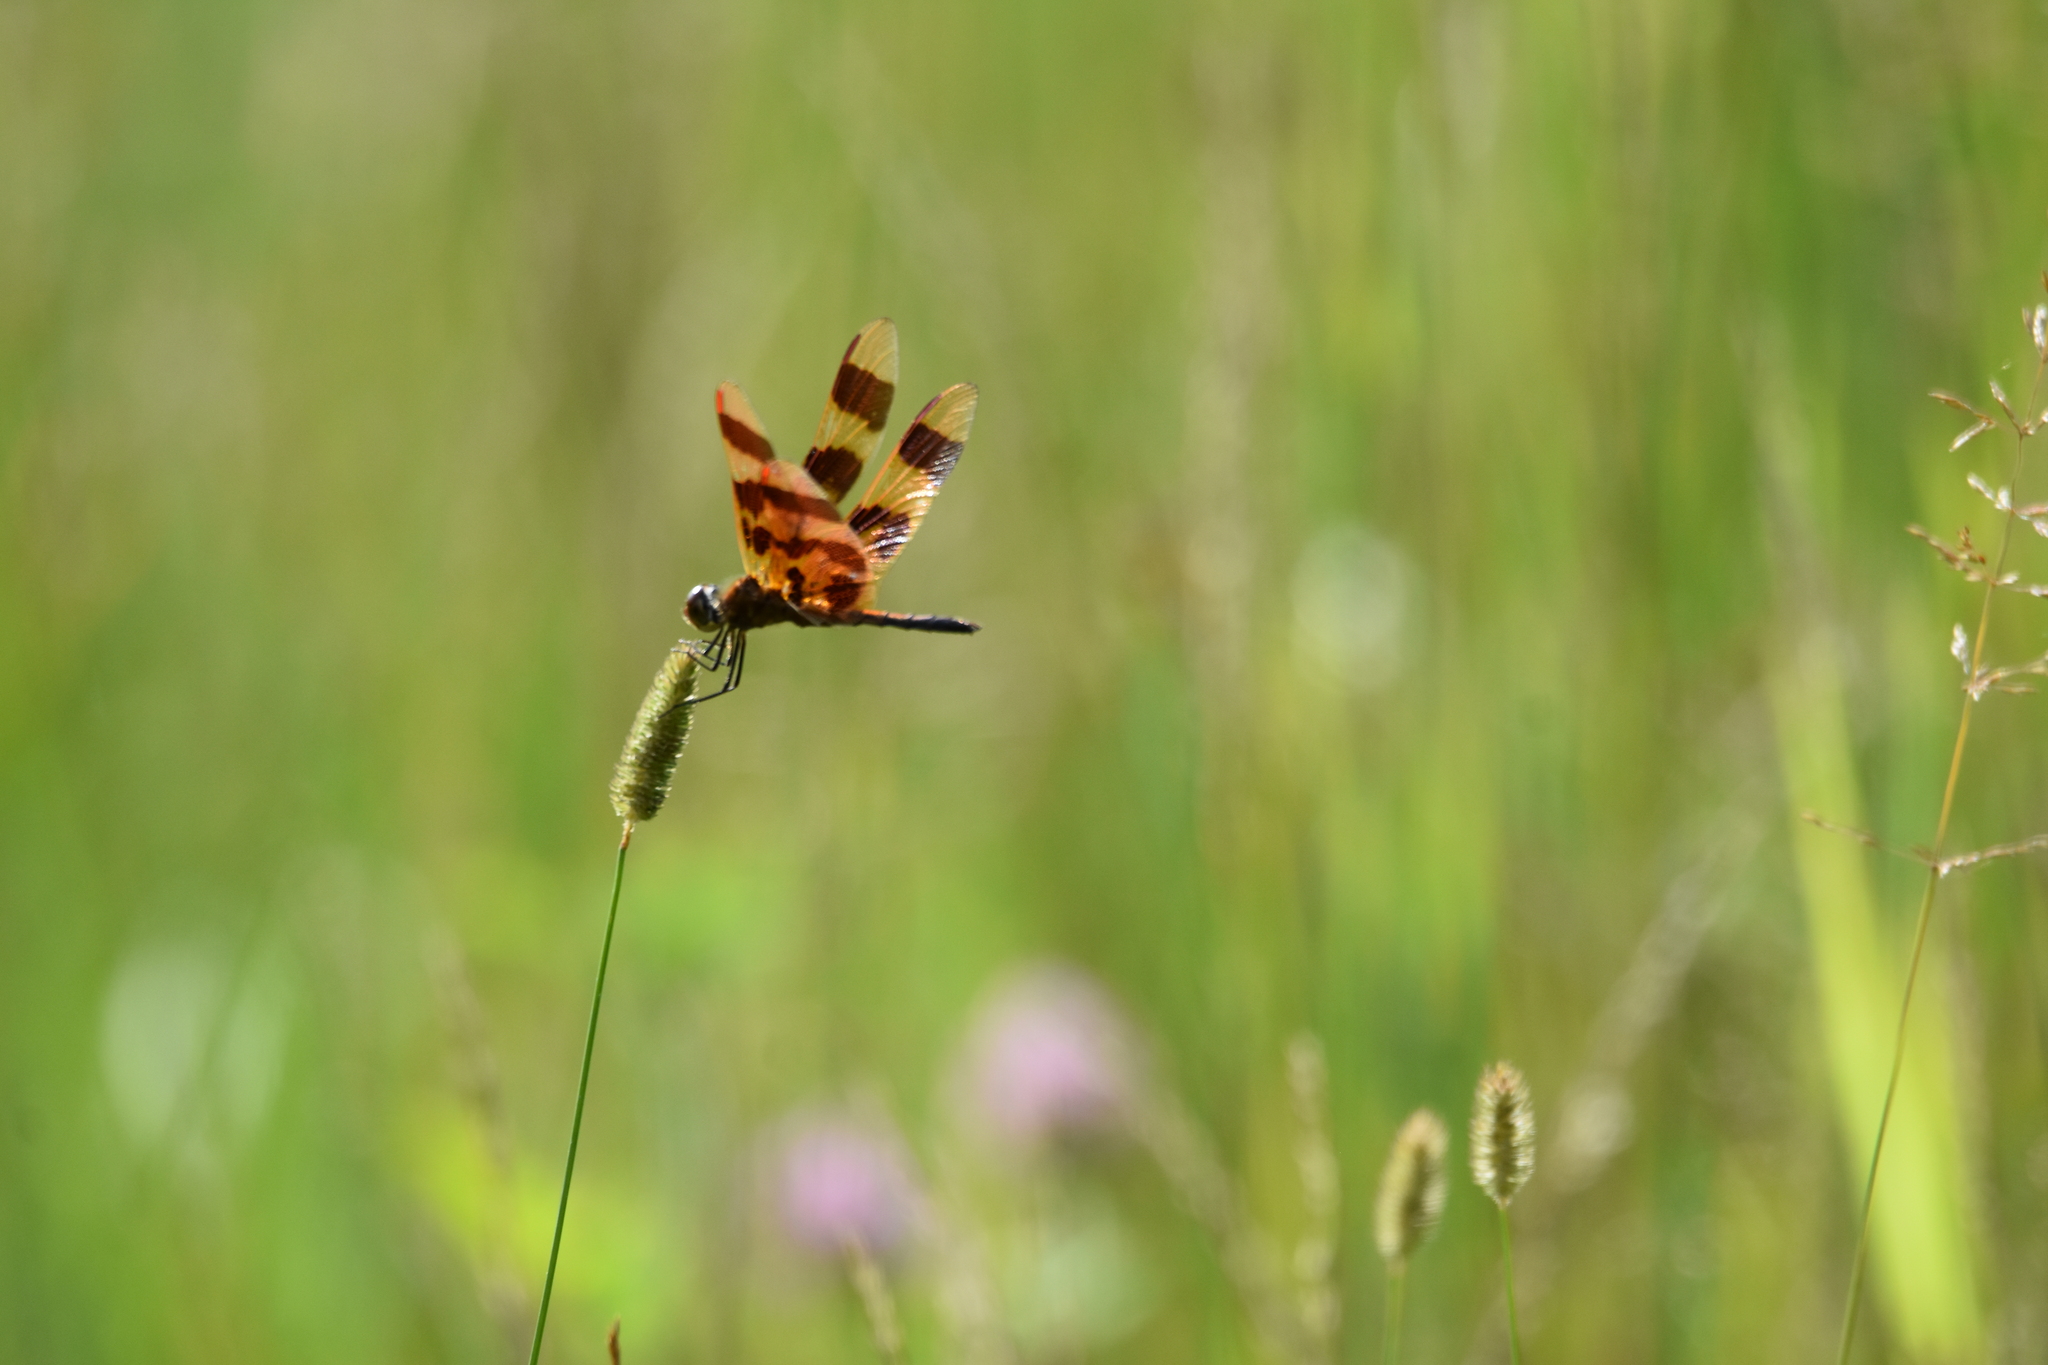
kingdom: Animalia
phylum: Arthropoda
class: Insecta
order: Odonata
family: Libellulidae
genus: Celithemis
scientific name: Celithemis eponina
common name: Halloween pennant
